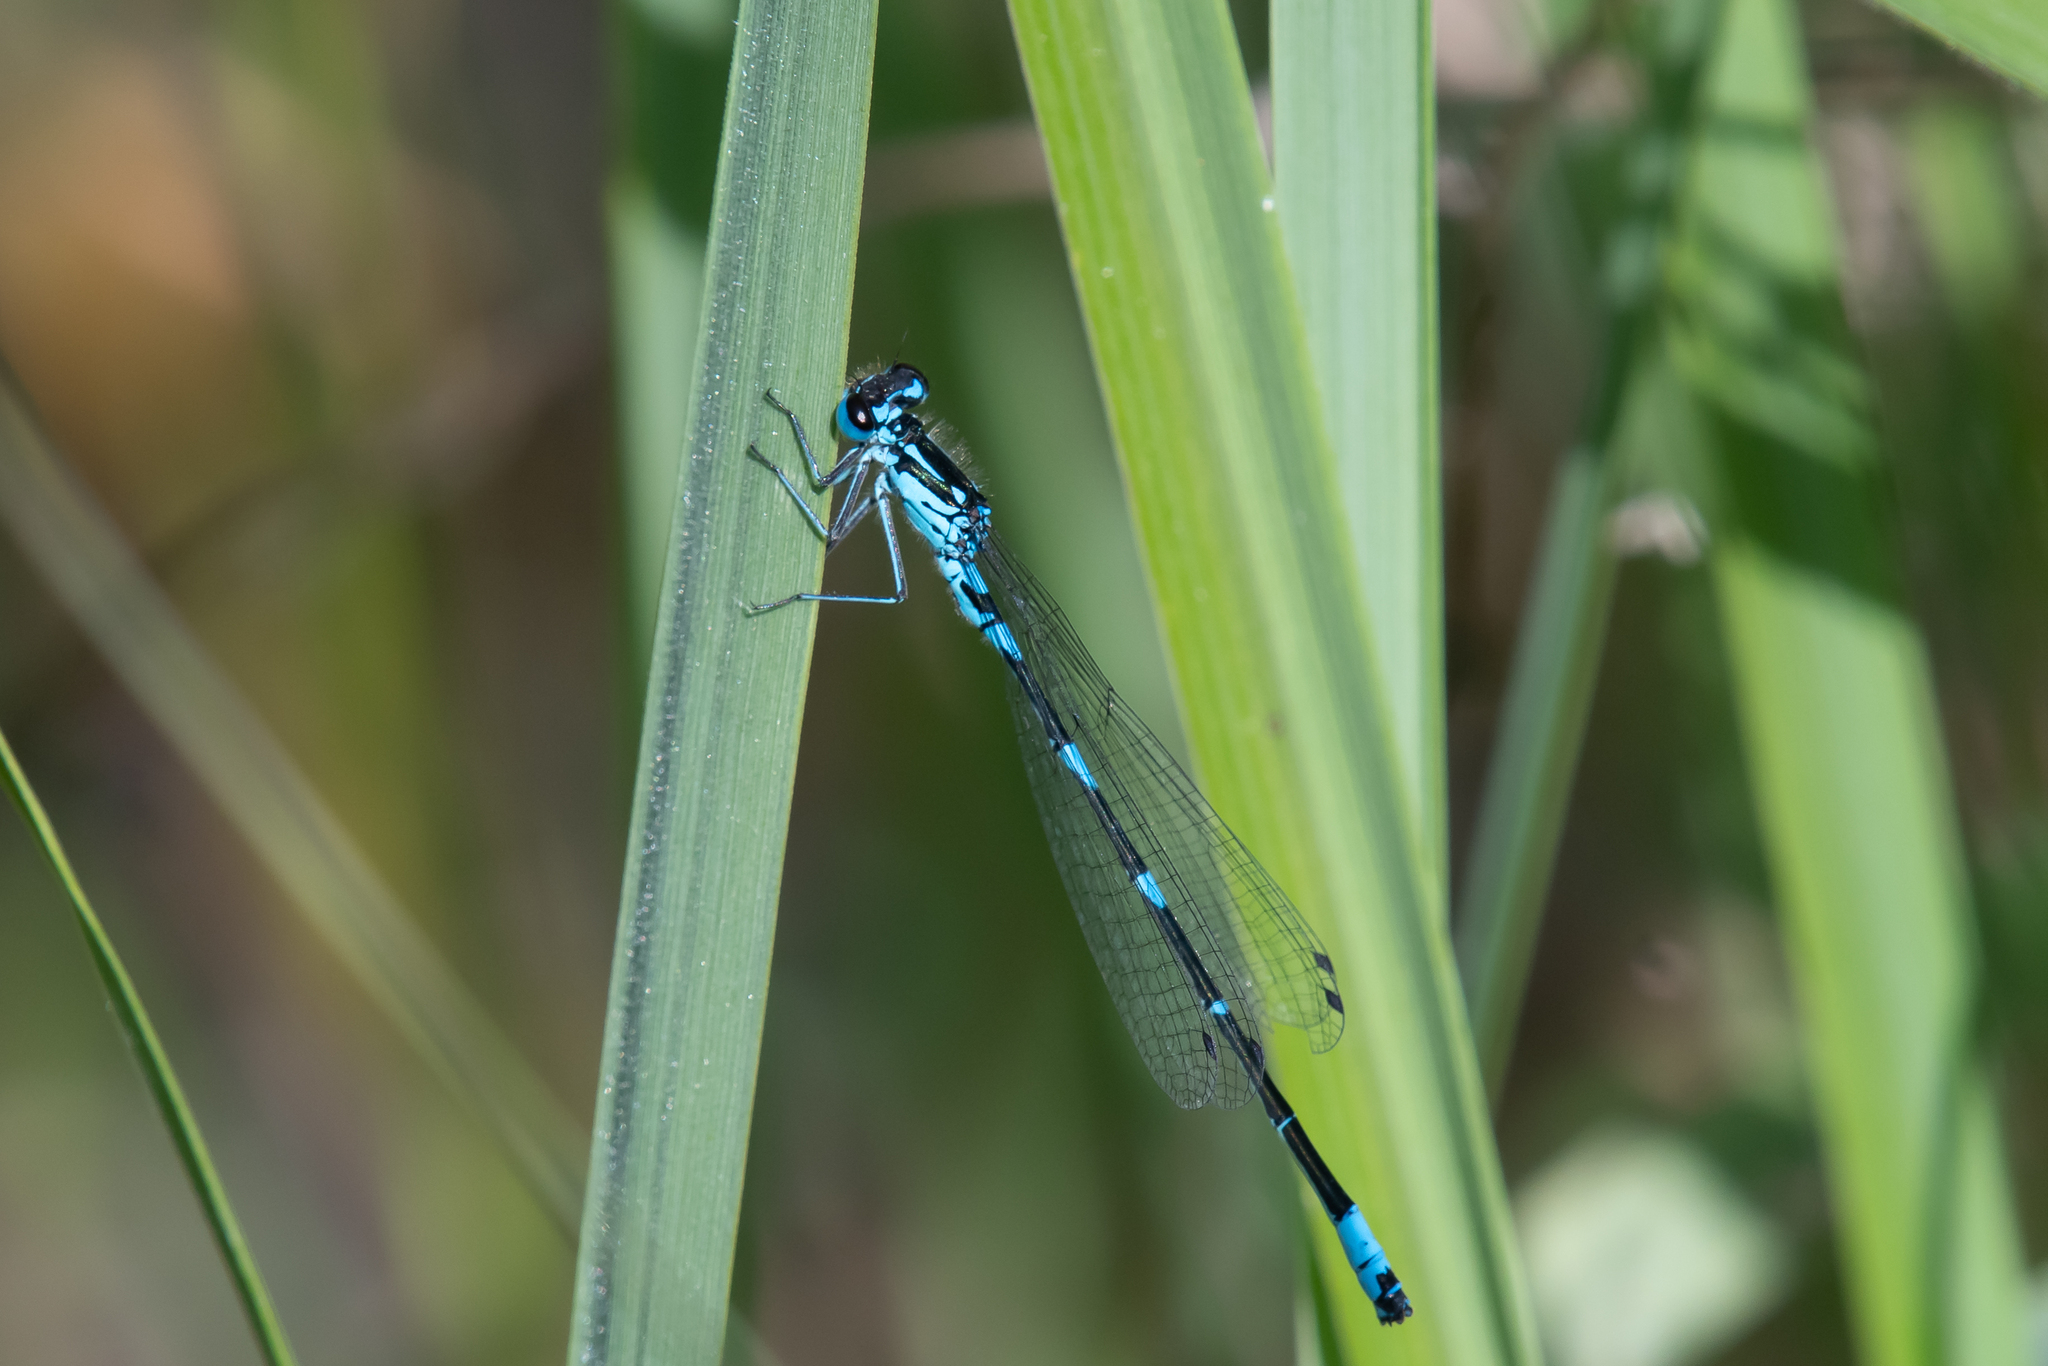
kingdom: Animalia
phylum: Arthropoda
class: Insecta
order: Odonata
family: Coenagrionidae
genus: Coenagrion
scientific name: Coenagrion pulchellum
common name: Variable bluet
